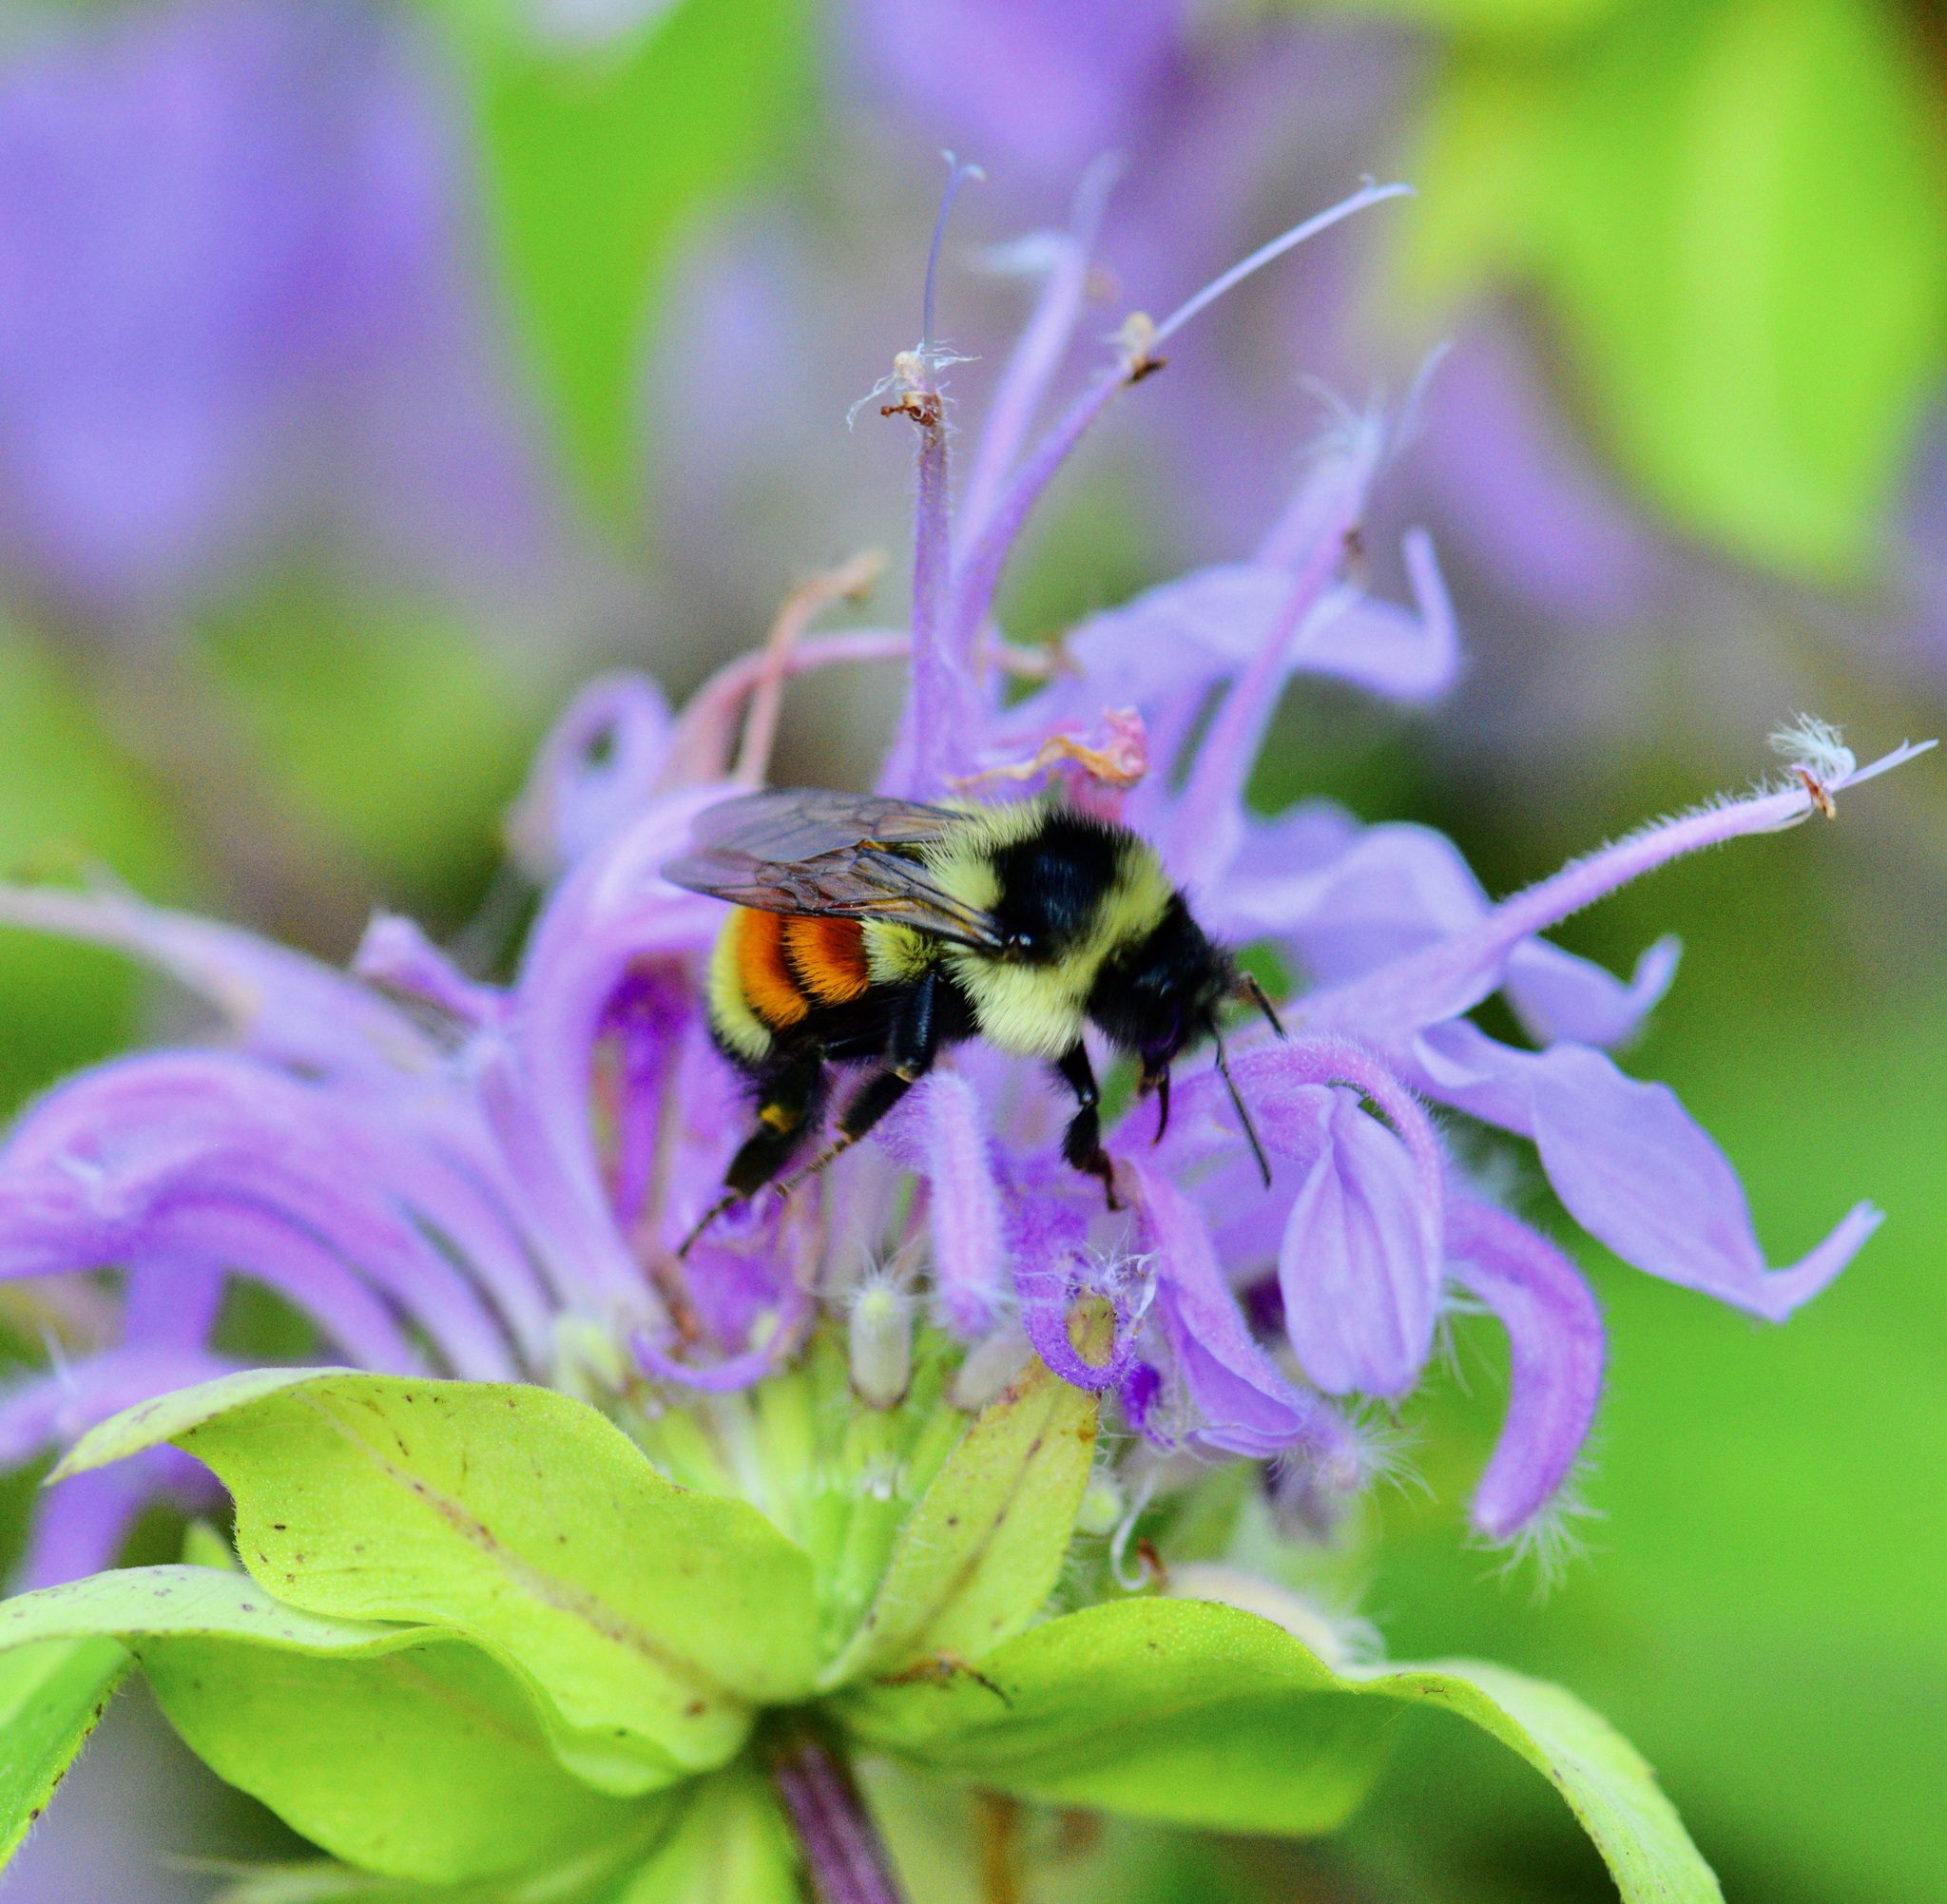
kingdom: Animalia
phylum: Arthropoda
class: Insecta
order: Hymenoptera
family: Apidae
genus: Bombus
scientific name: Bombus ternarius
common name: Tri-colored bumble bee
